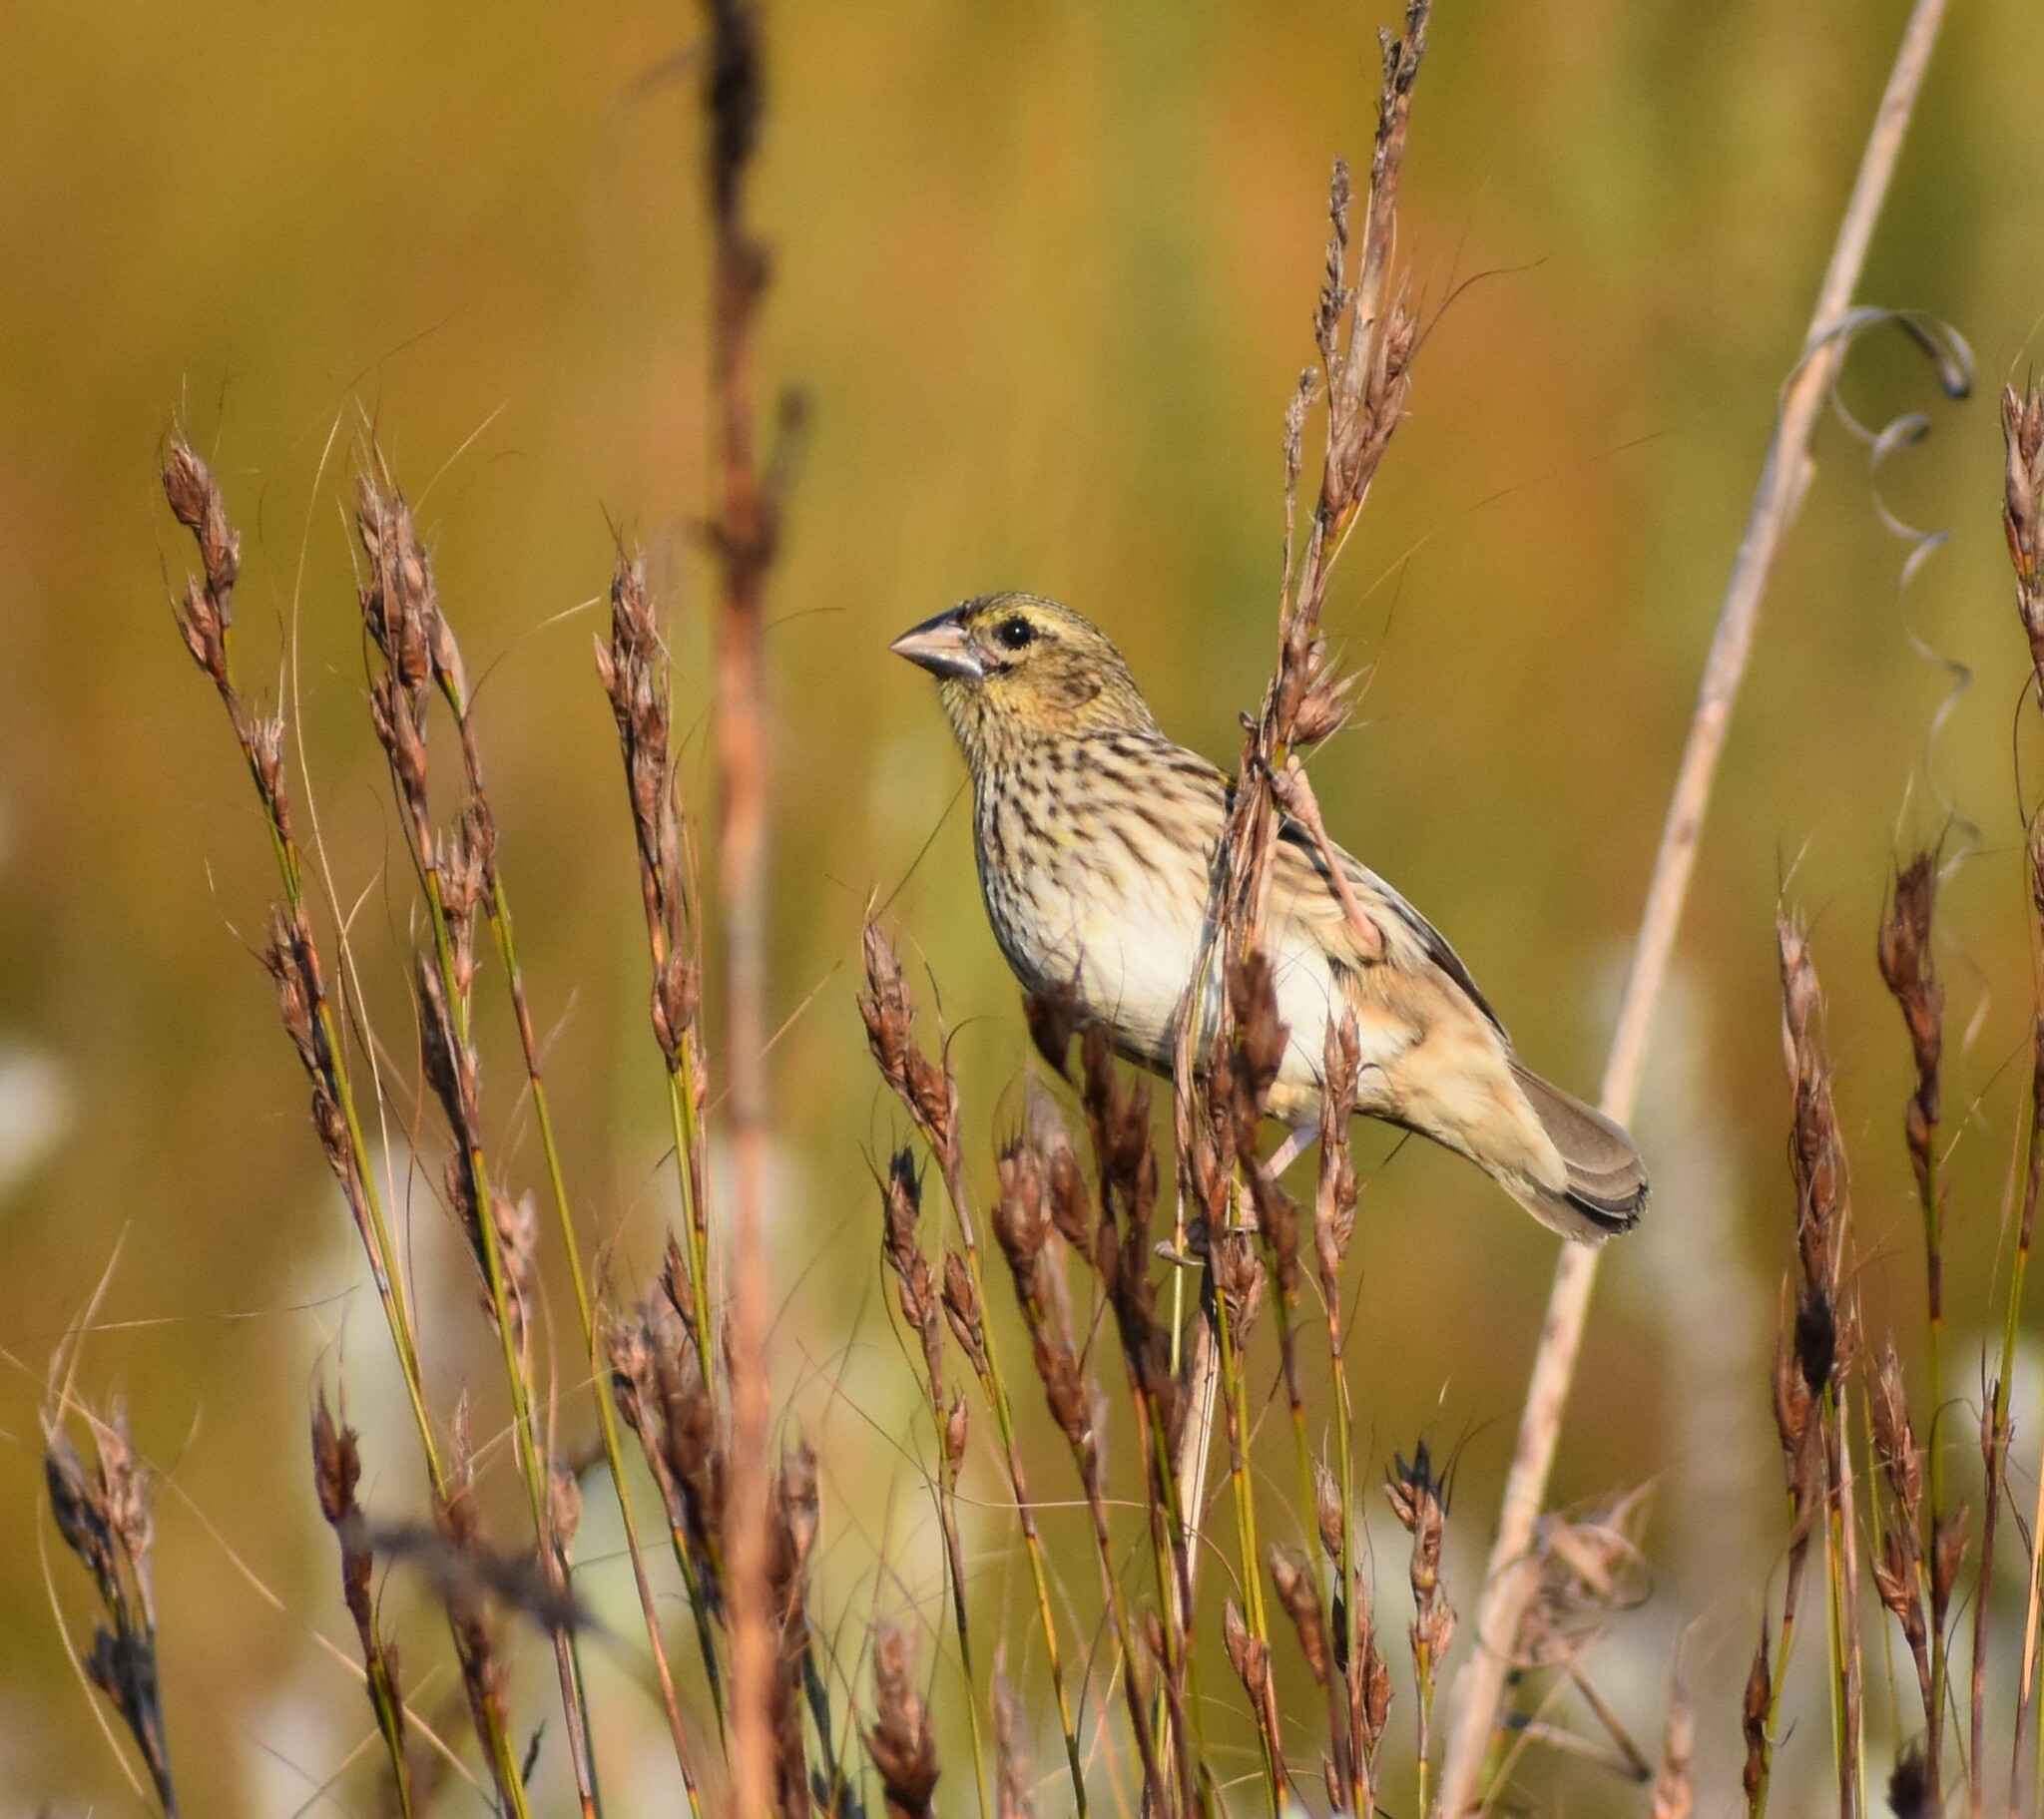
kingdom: Animalia
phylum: Chordata
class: Aves
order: Passeriformes
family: Ploceidae
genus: Euplectes
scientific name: Euplectes capensis
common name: Yellow bishop
